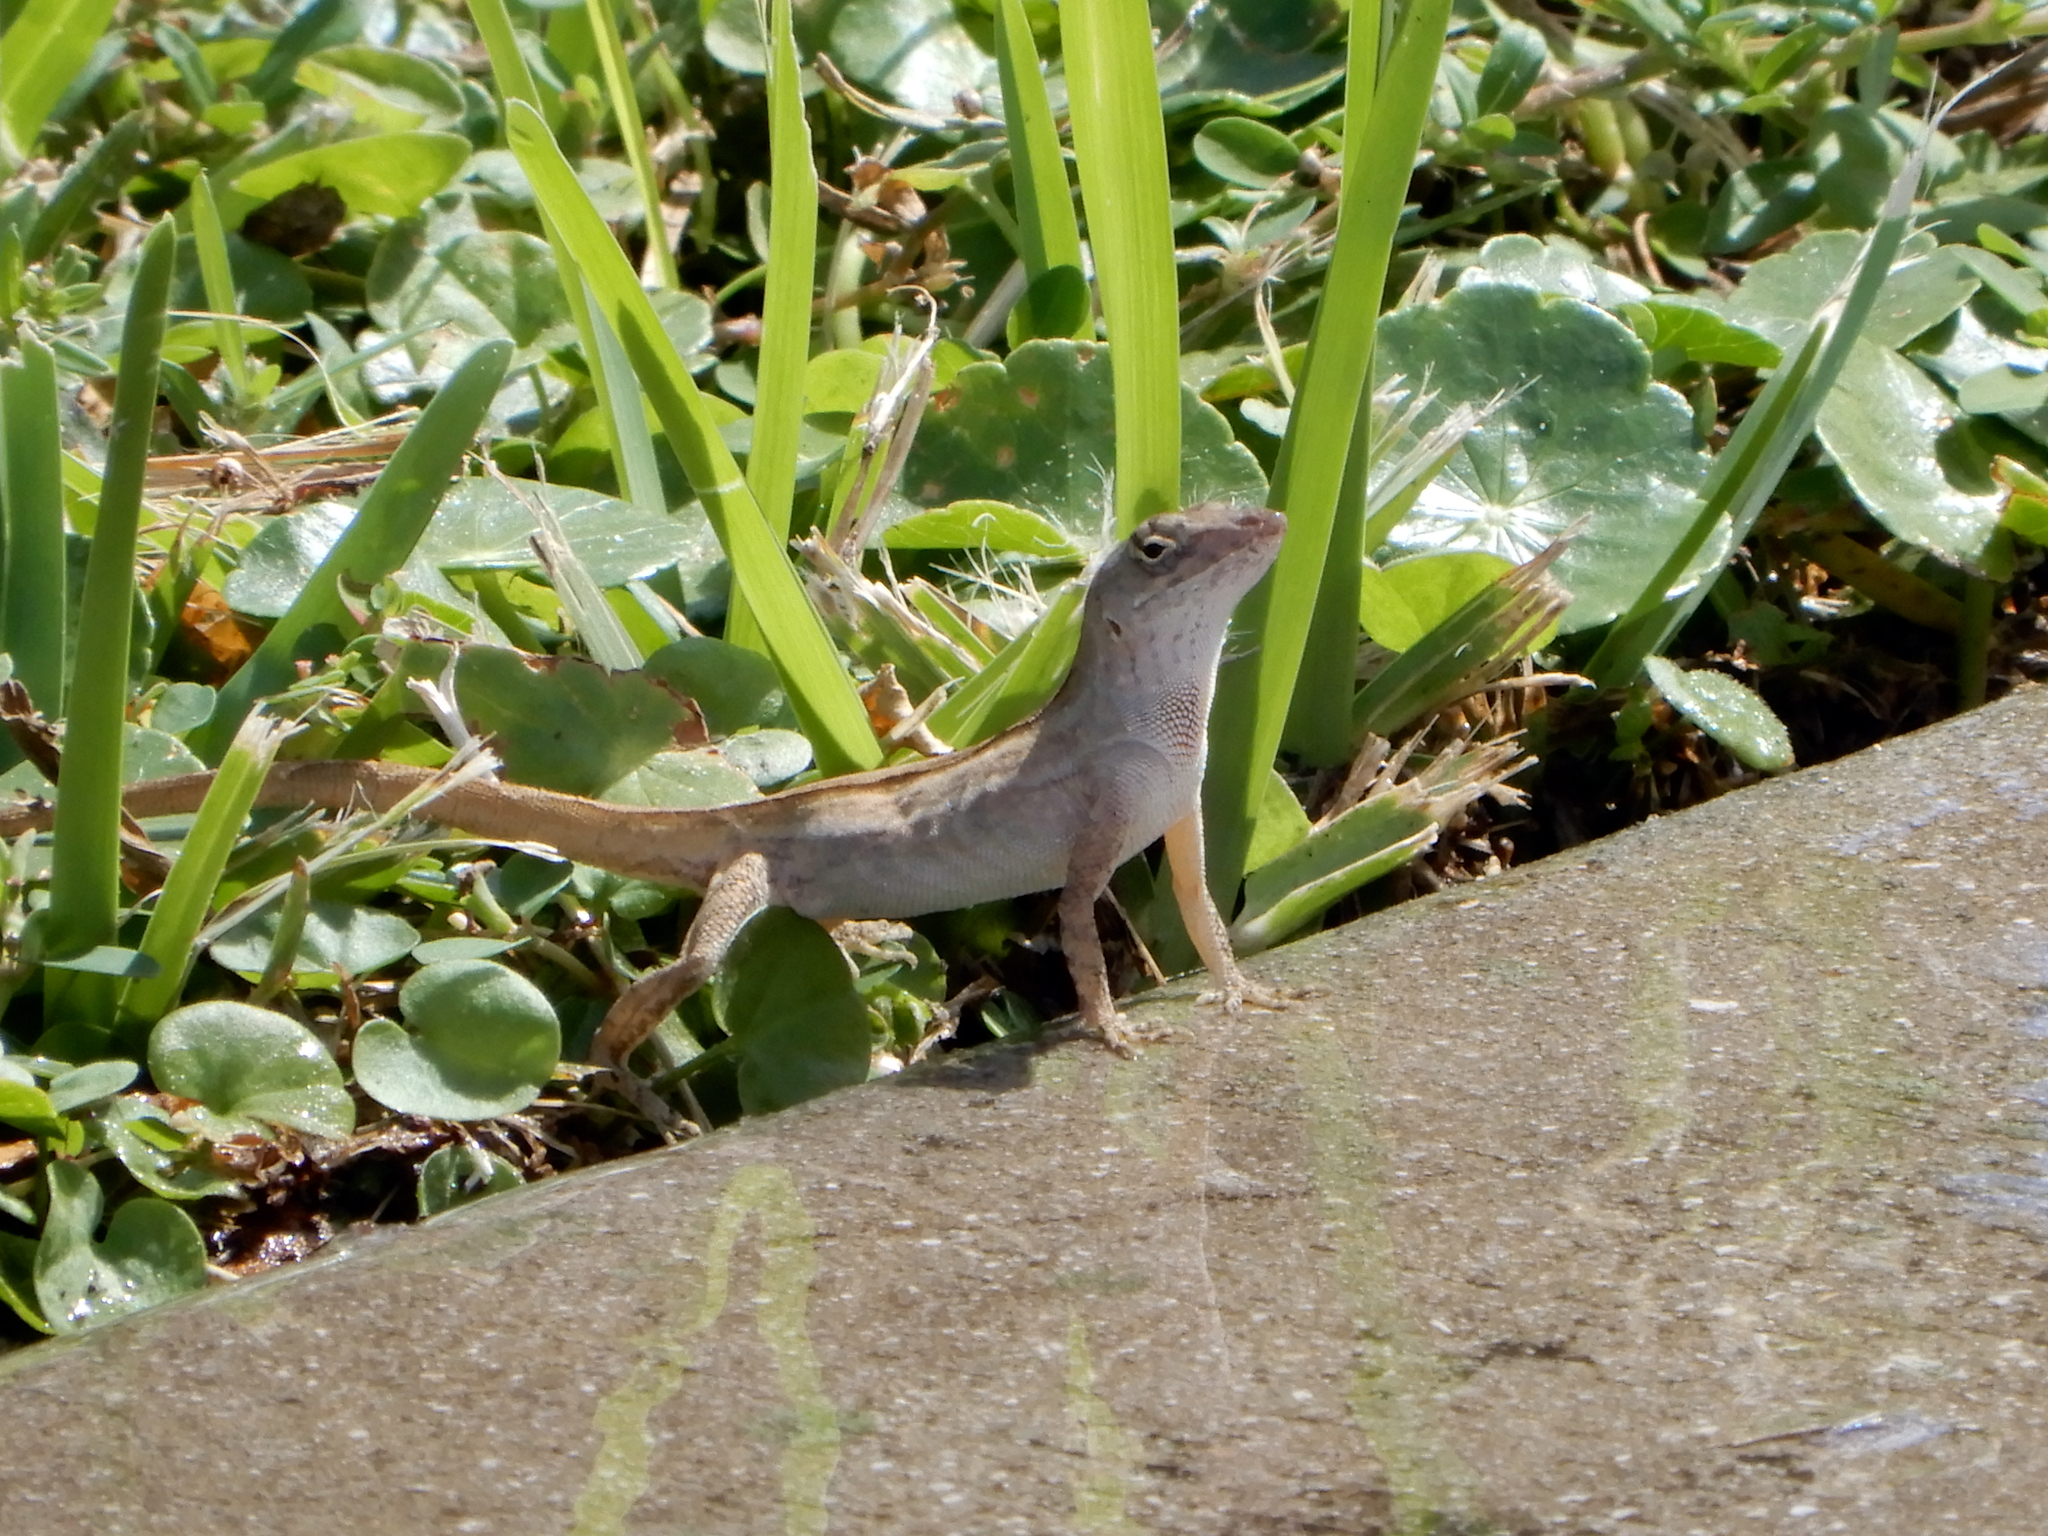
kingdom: Animalia
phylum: Chordata
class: Squamata
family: Dactyloidae
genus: Anolis
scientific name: Anolis sagrei
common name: Brown anole
